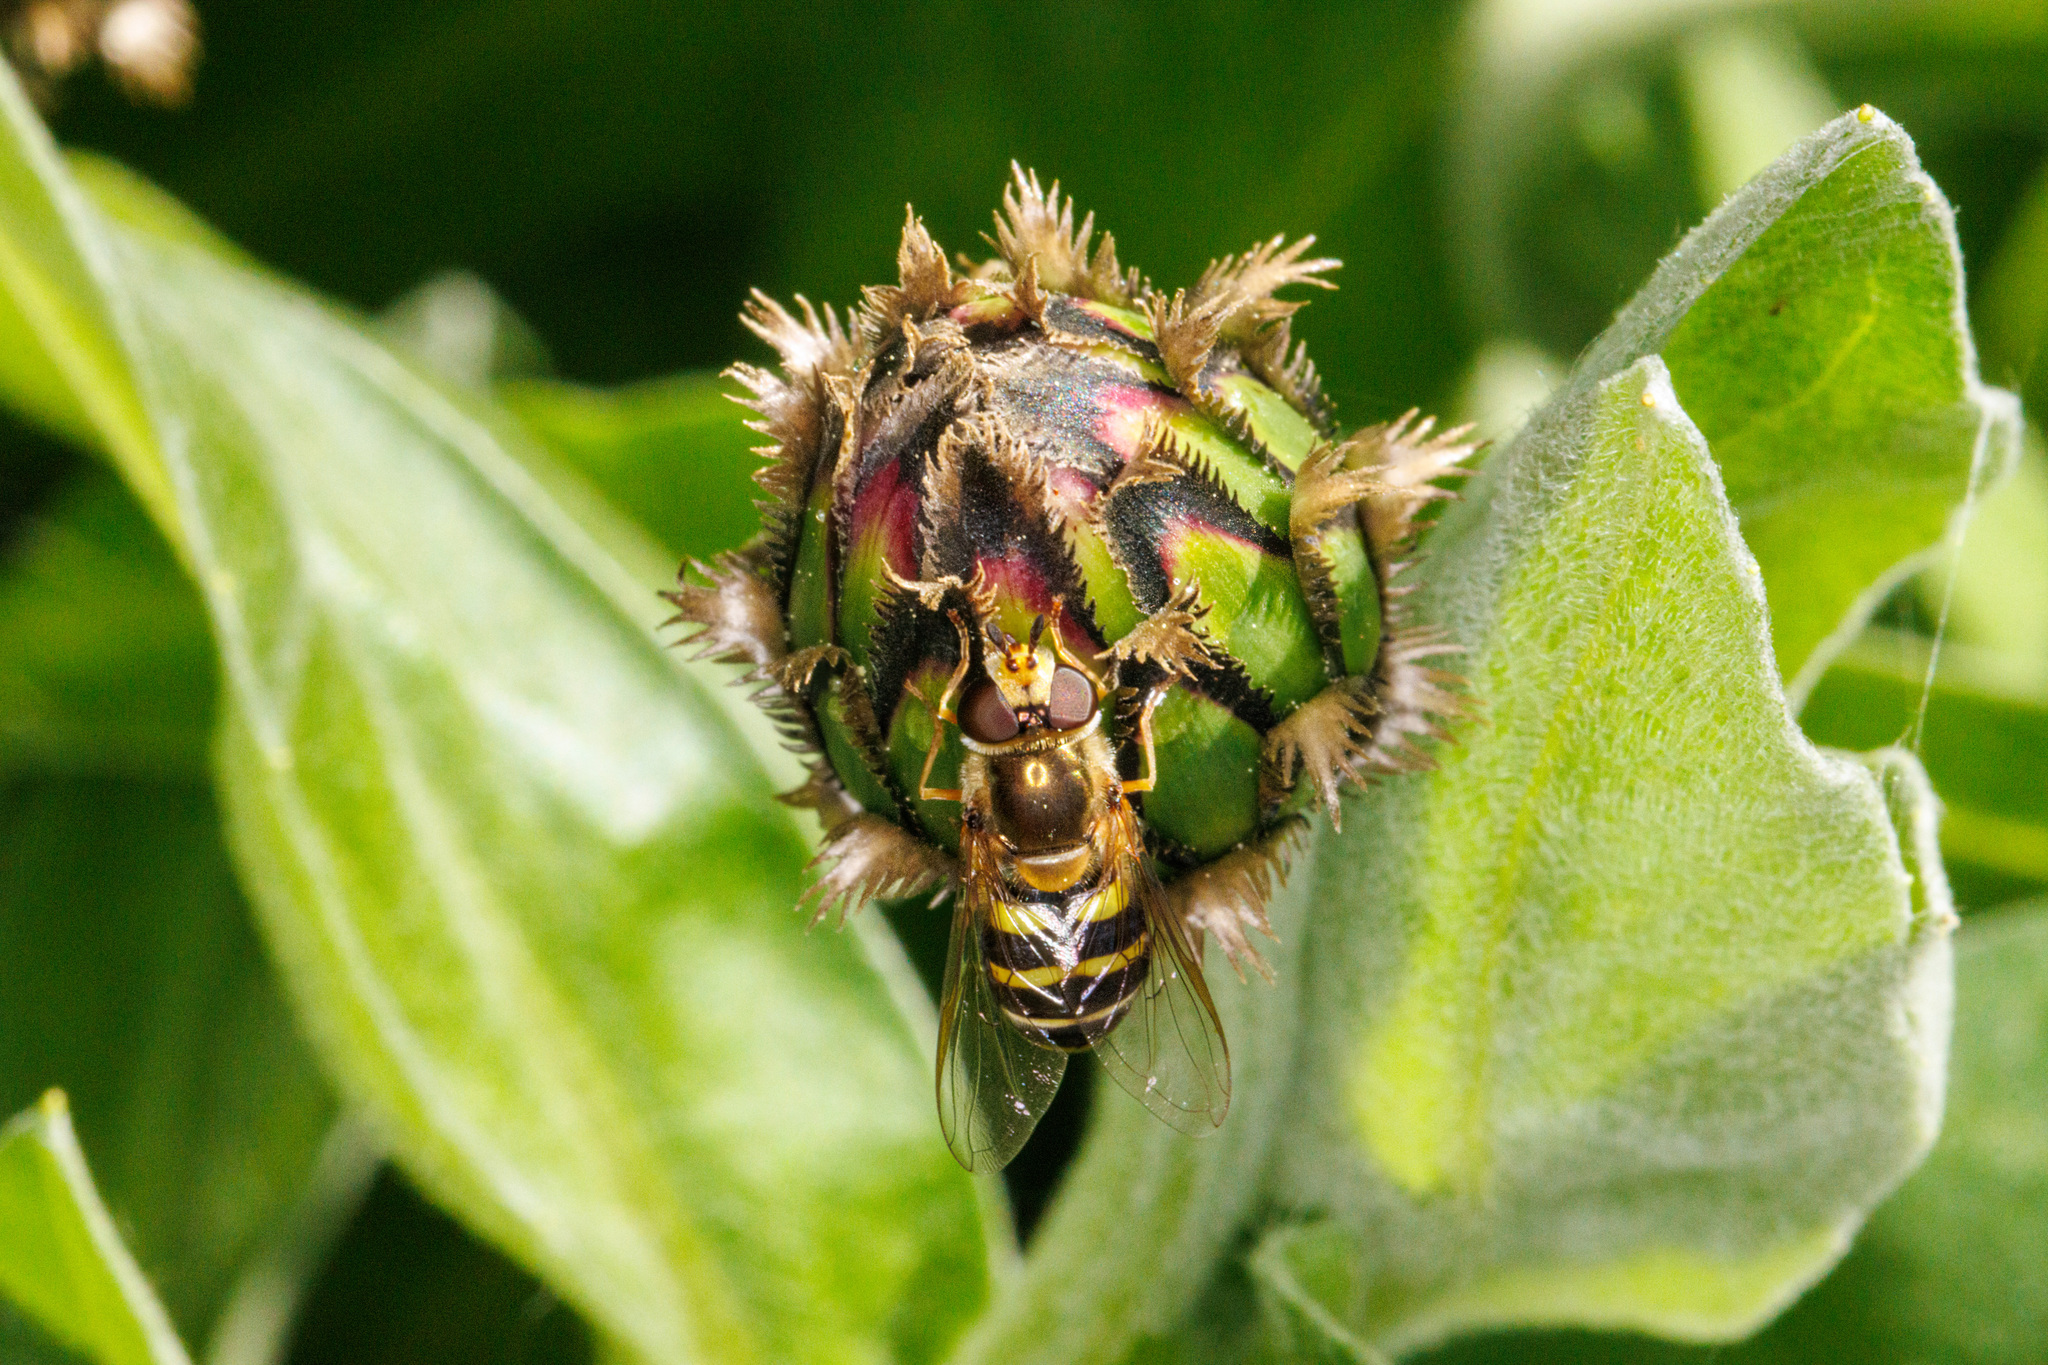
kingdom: Animalia
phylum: Arthropoda
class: Insecta
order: Diptera
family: Syrphidae
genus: Eupeodes
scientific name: Eupeodes fumipennis
